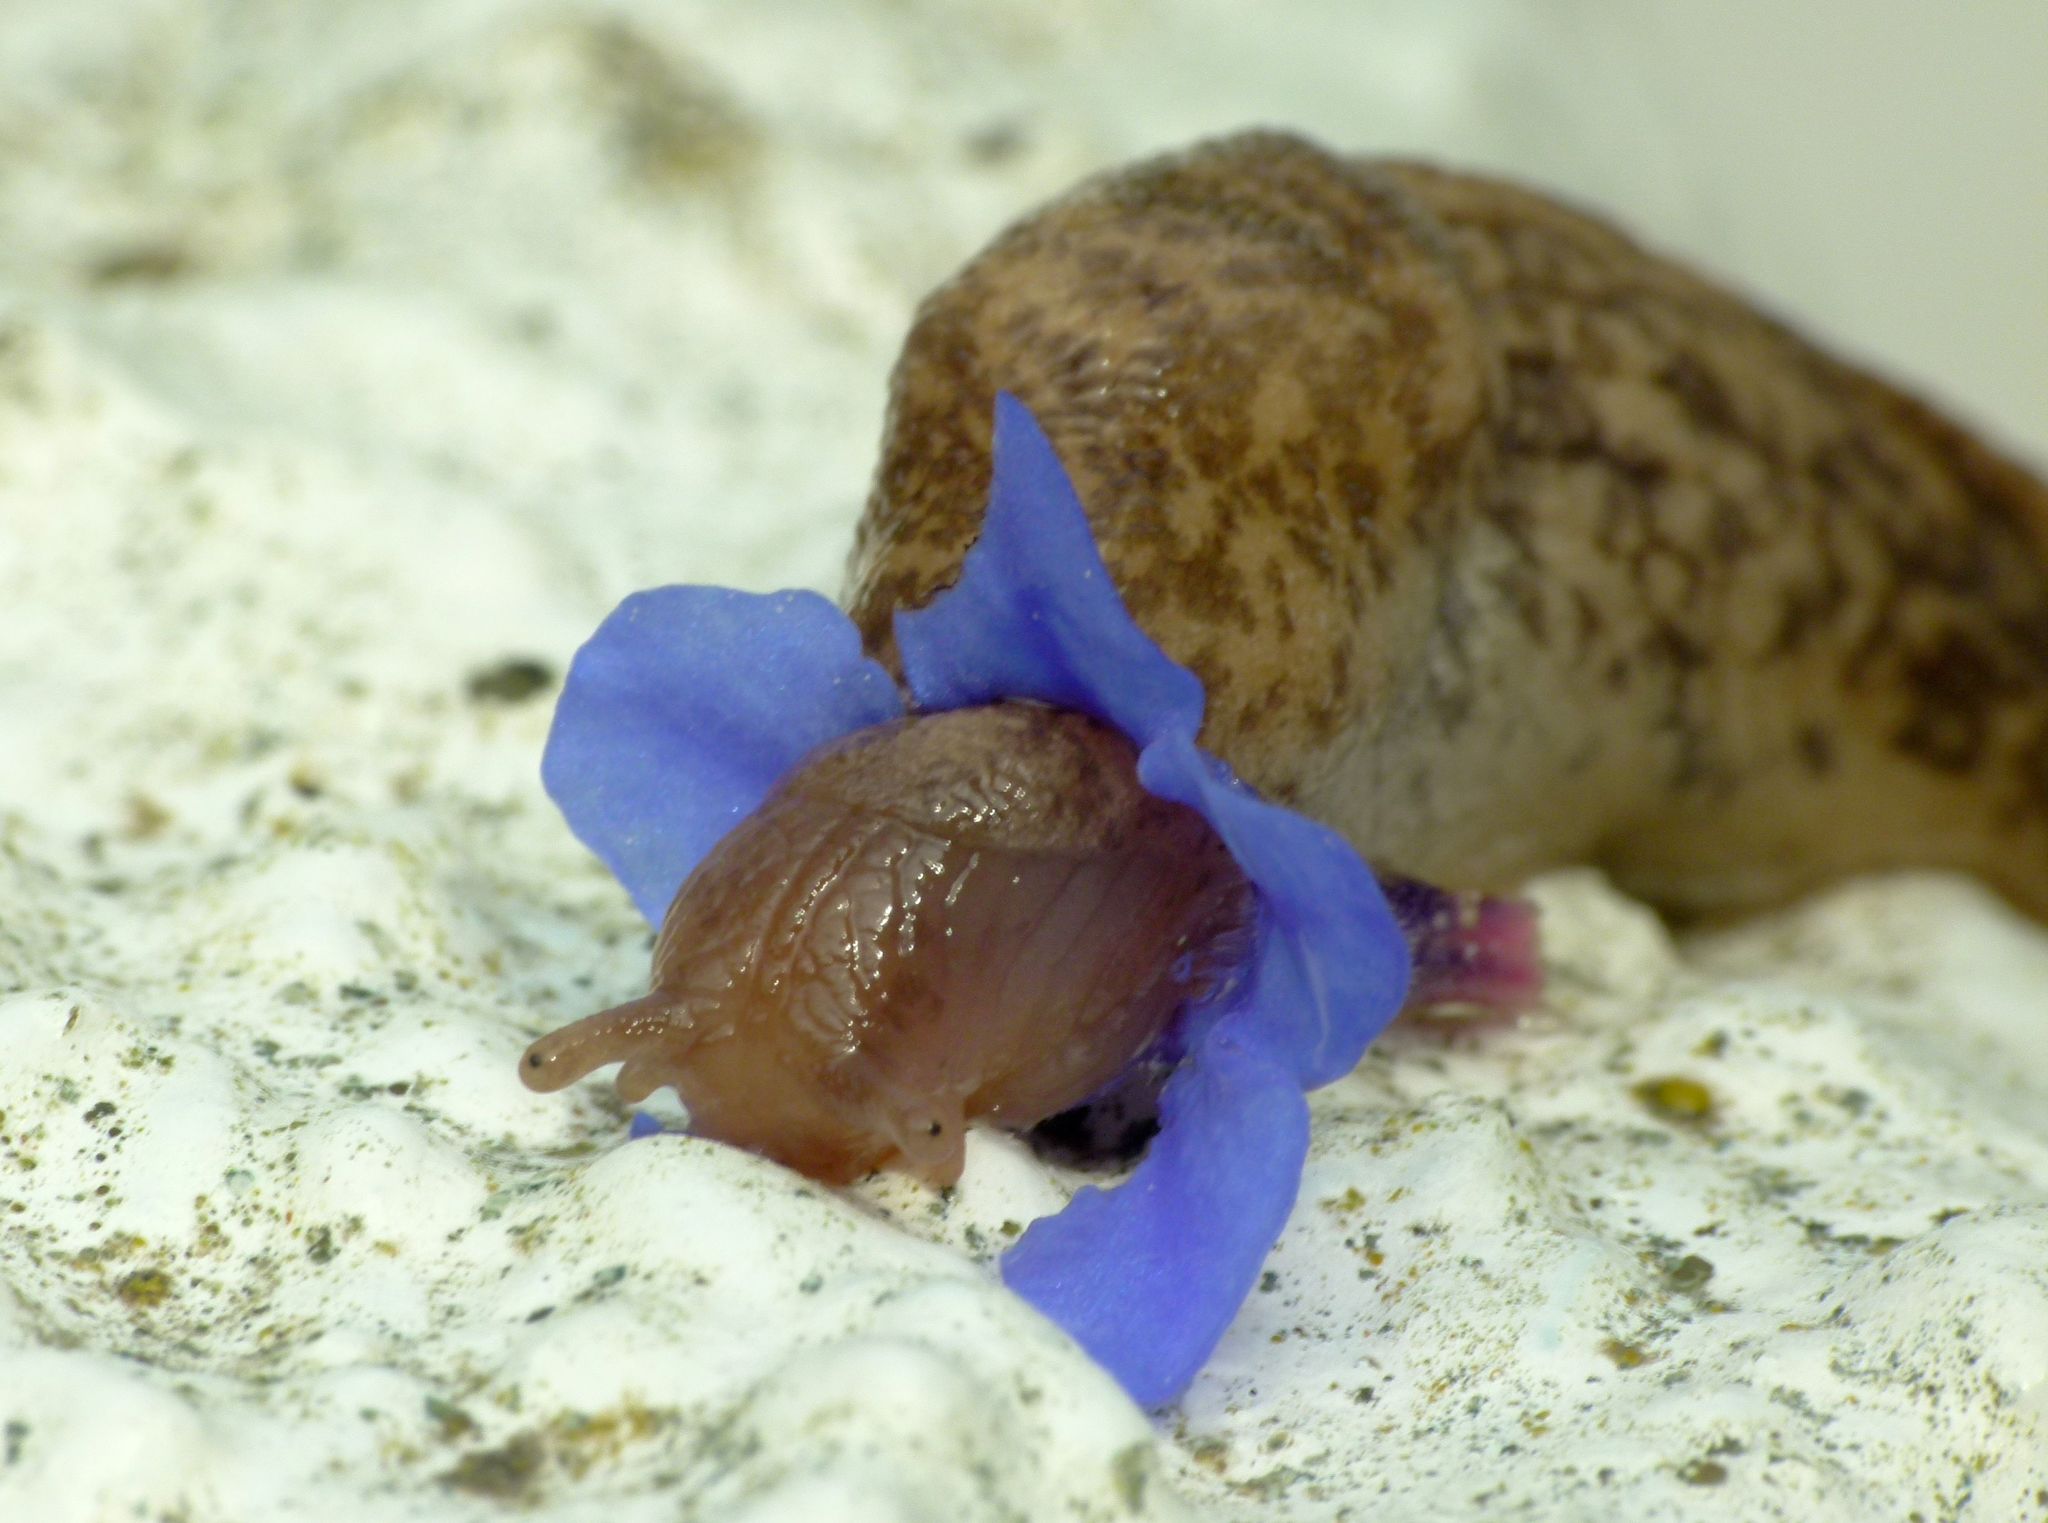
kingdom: Animalia
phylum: Mollusca
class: Gastropoda
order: Stylommatophora
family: Agriolimacidae
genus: Deroceras
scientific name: Deroceras reticulatum
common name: Gray field slug
